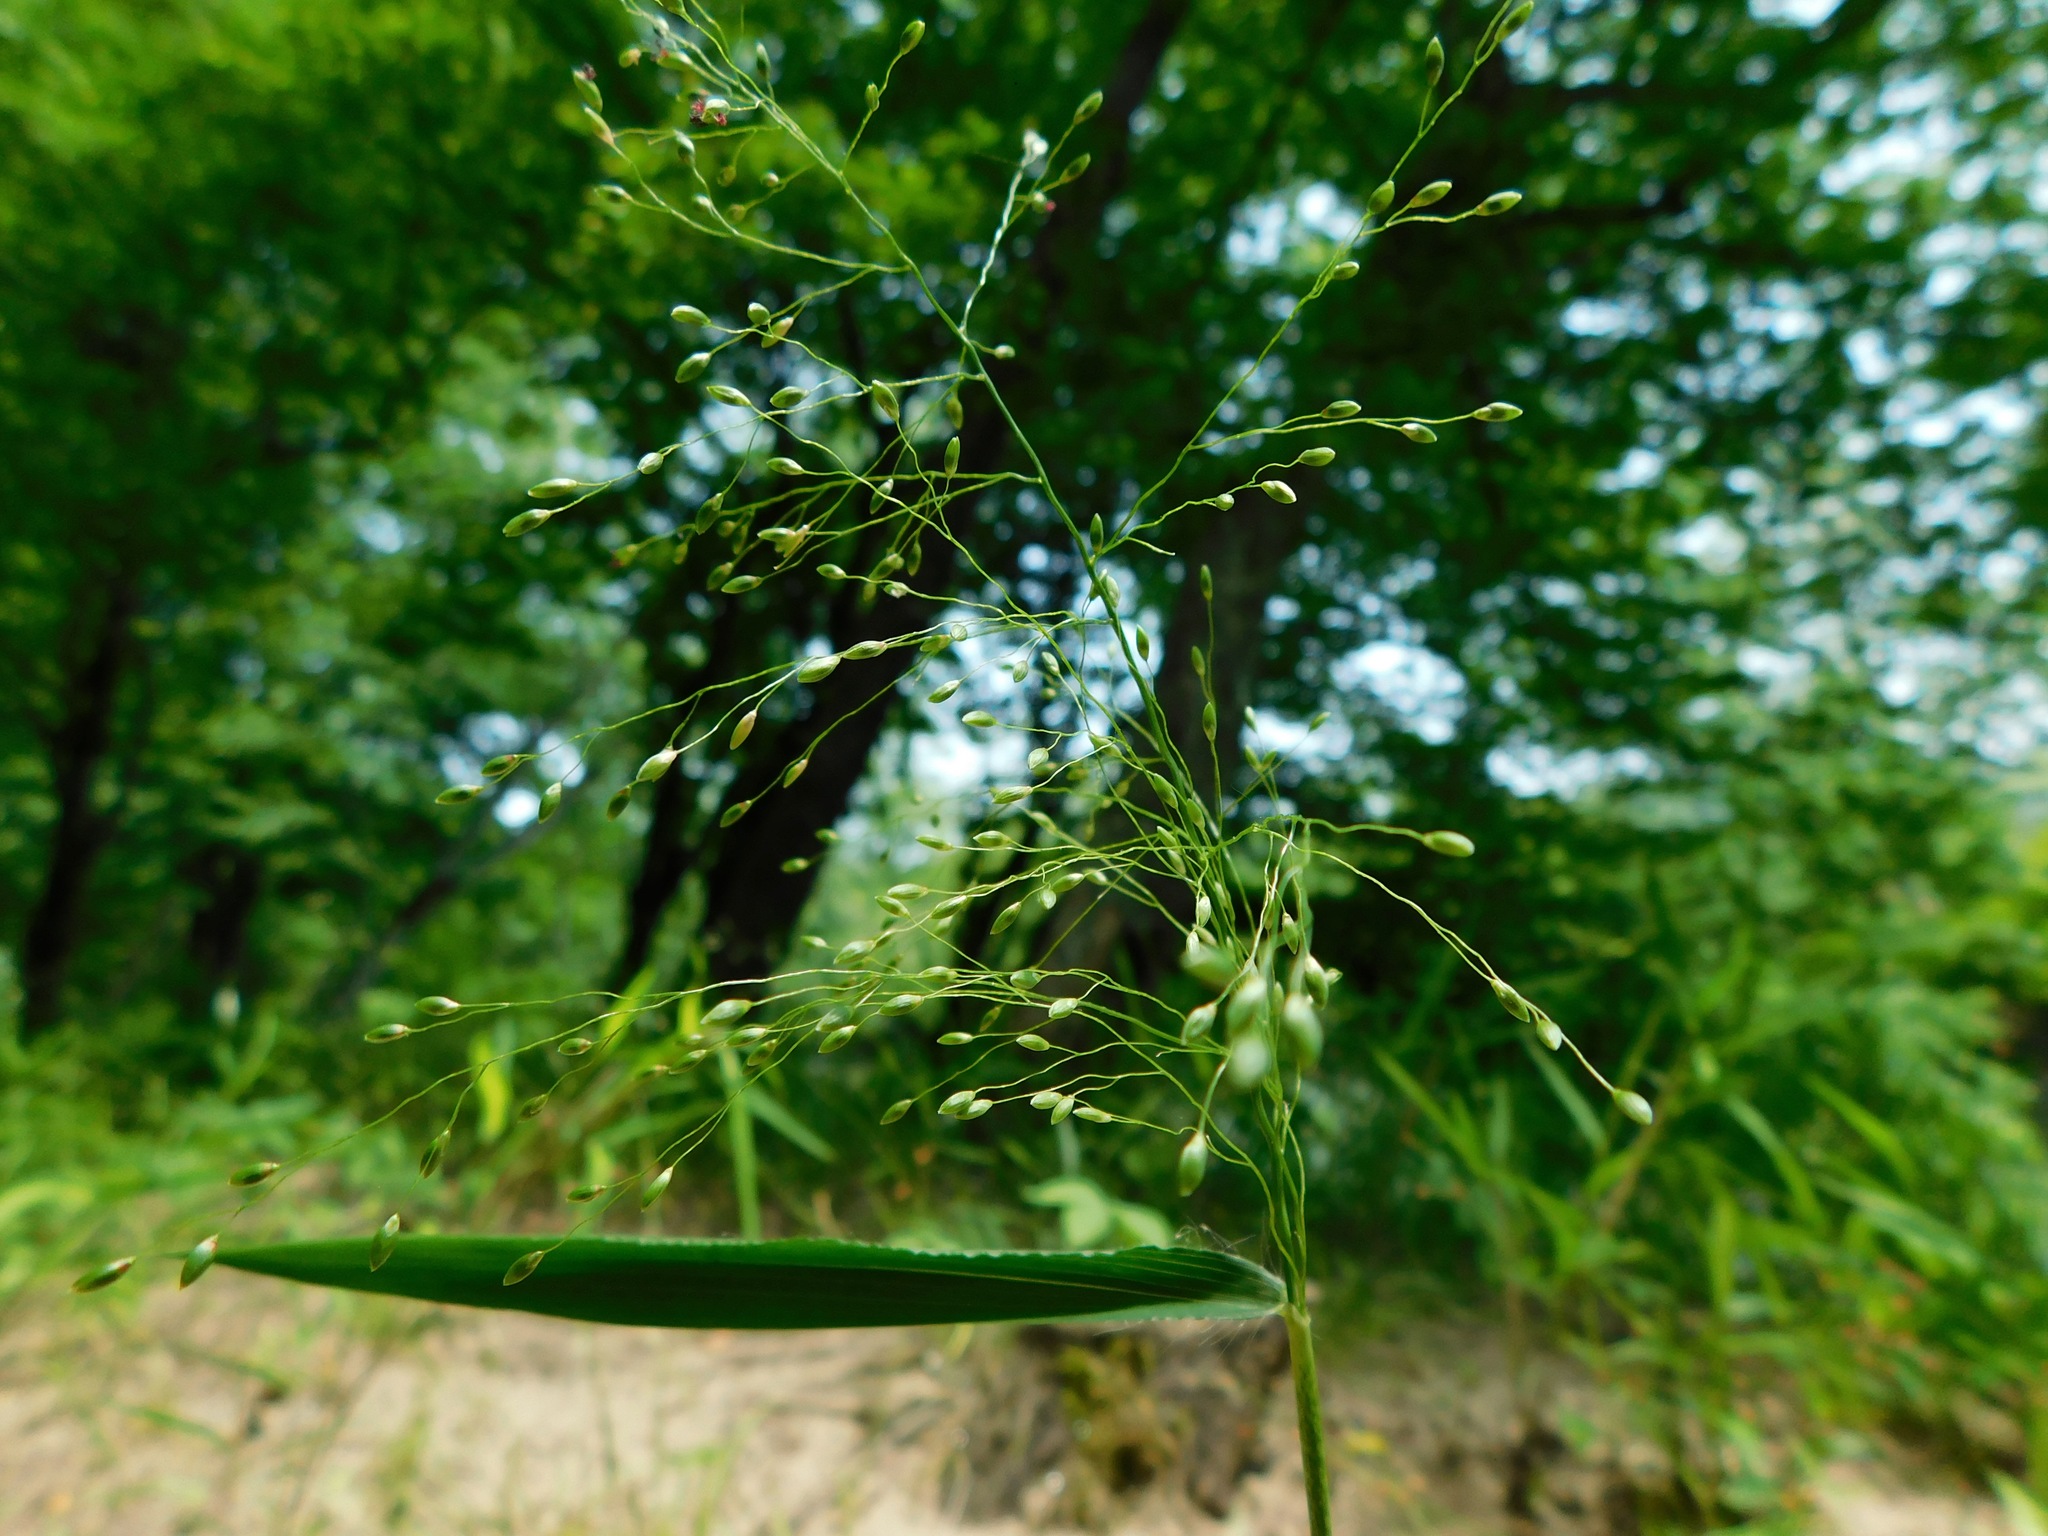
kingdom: Plantae
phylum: Tracheophyta
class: Liliopsida
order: Poales
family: Poaceae
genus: Dichanthelium
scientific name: Dichanthelium yadkinense
